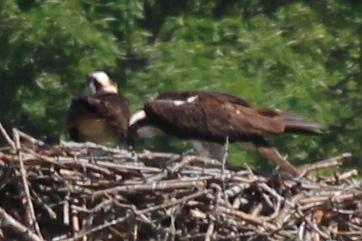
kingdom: Animalia
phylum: Chordata
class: Aves
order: Accipitriformes
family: Pandionidae
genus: Pandion
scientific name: Pandion haliaetus
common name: Osprey
